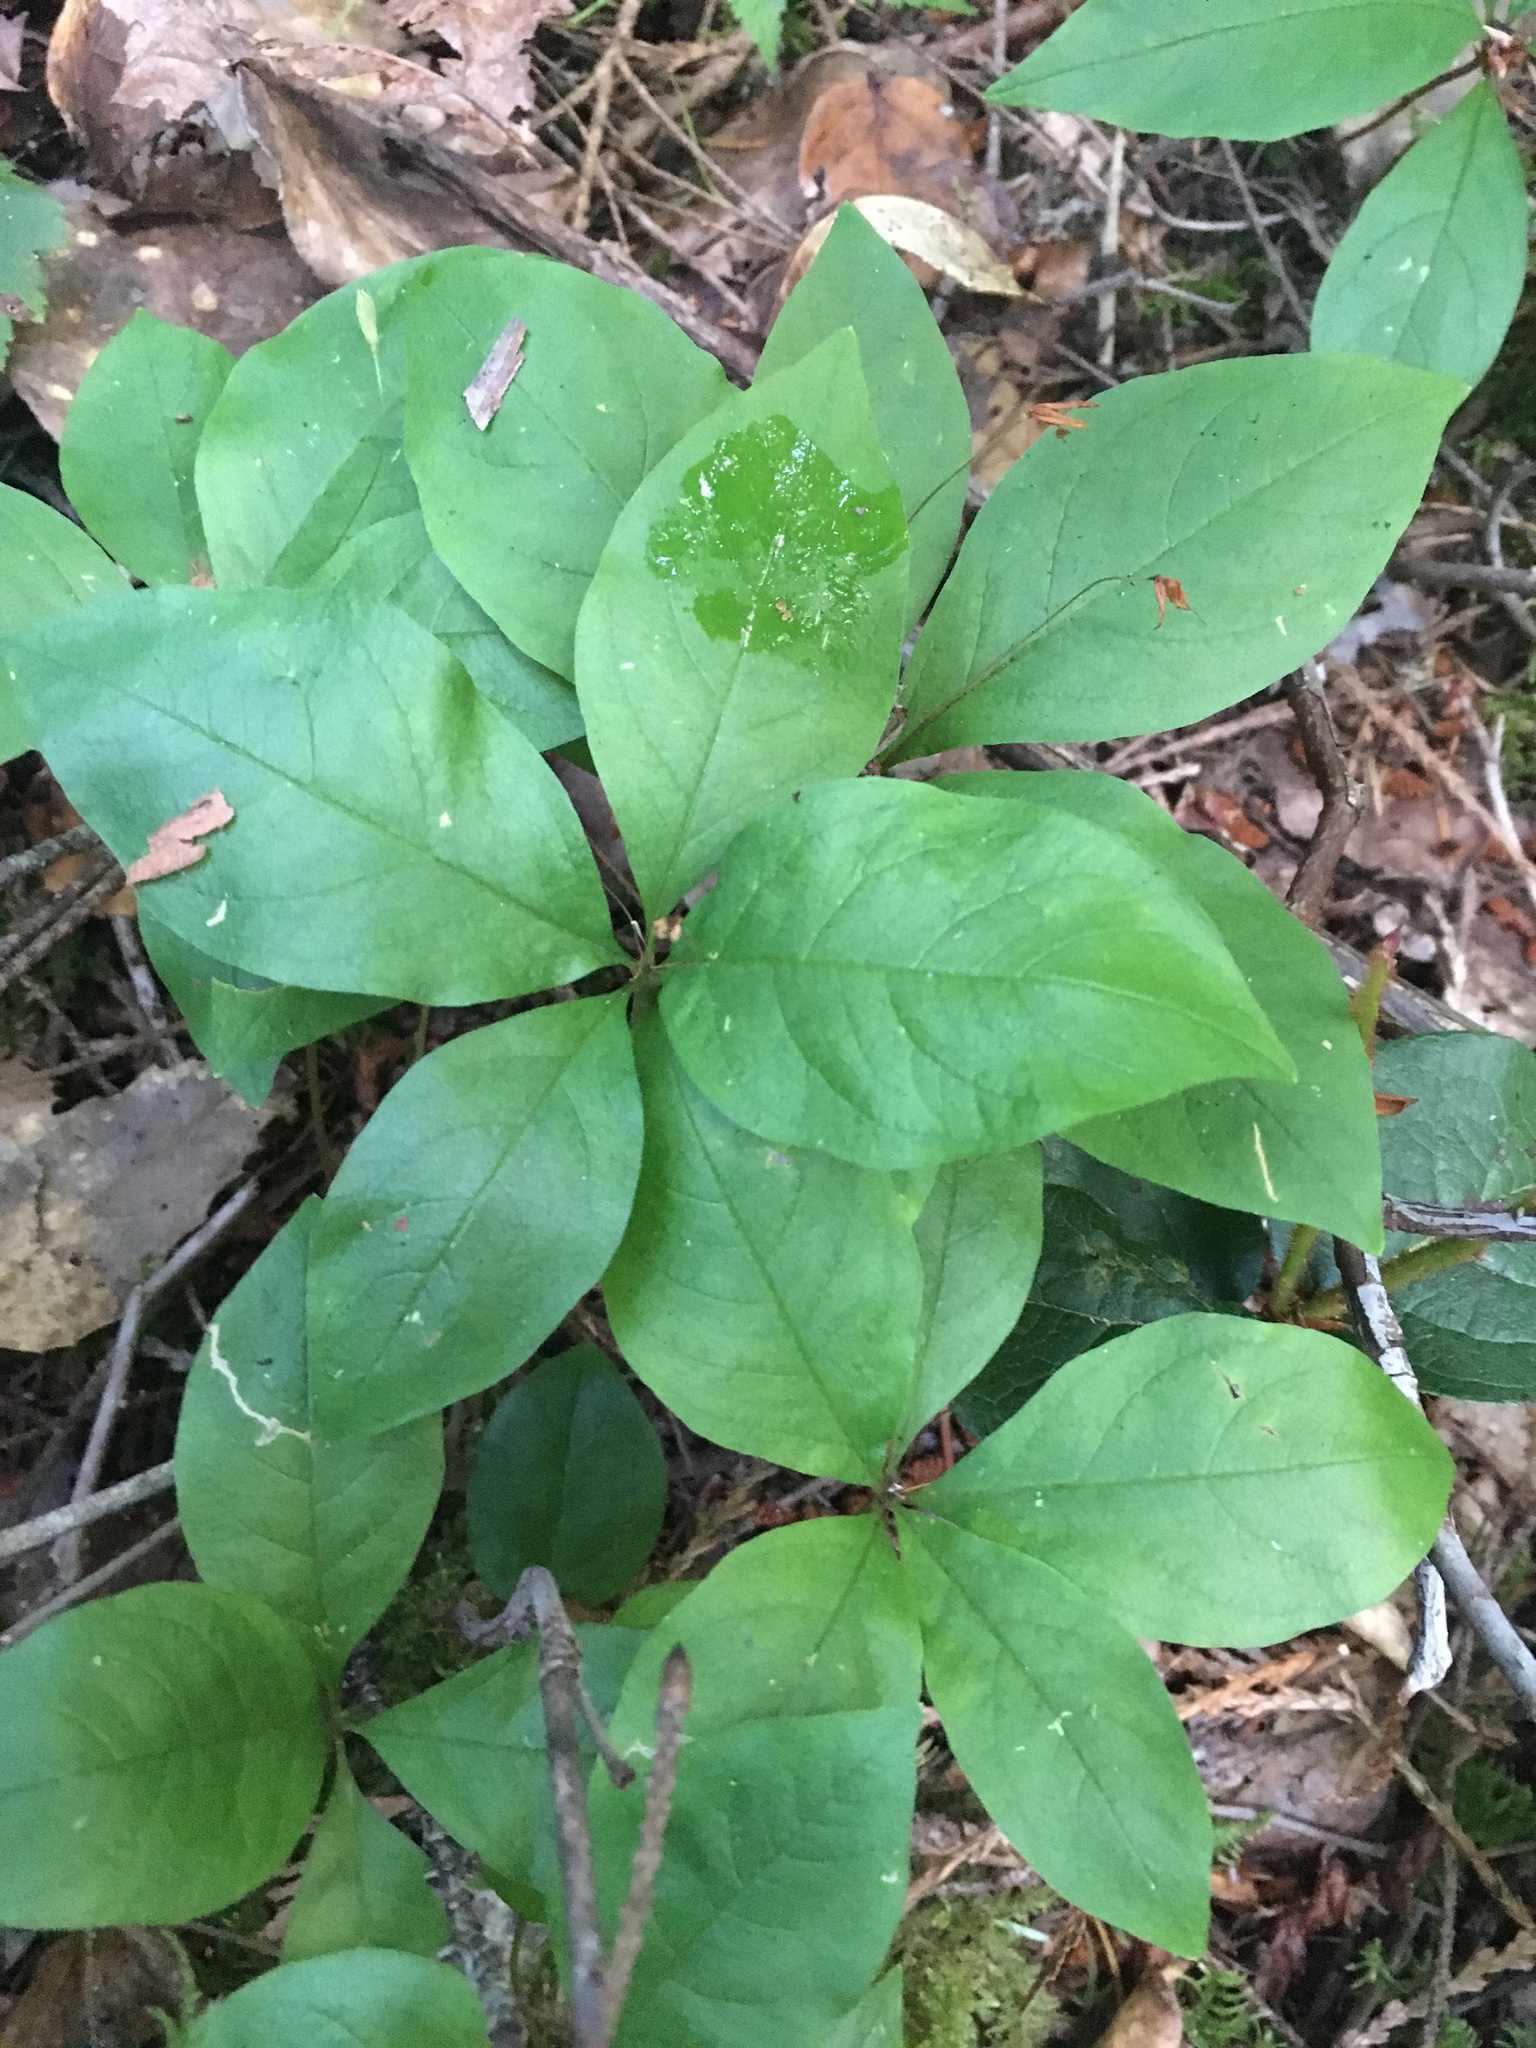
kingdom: Plantae
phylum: Tracheophyta
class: Magnoliopsida
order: Ericales
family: Primulaceae
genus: Lysimachia
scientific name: Lysimachia latifolia
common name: Pacific starflower
